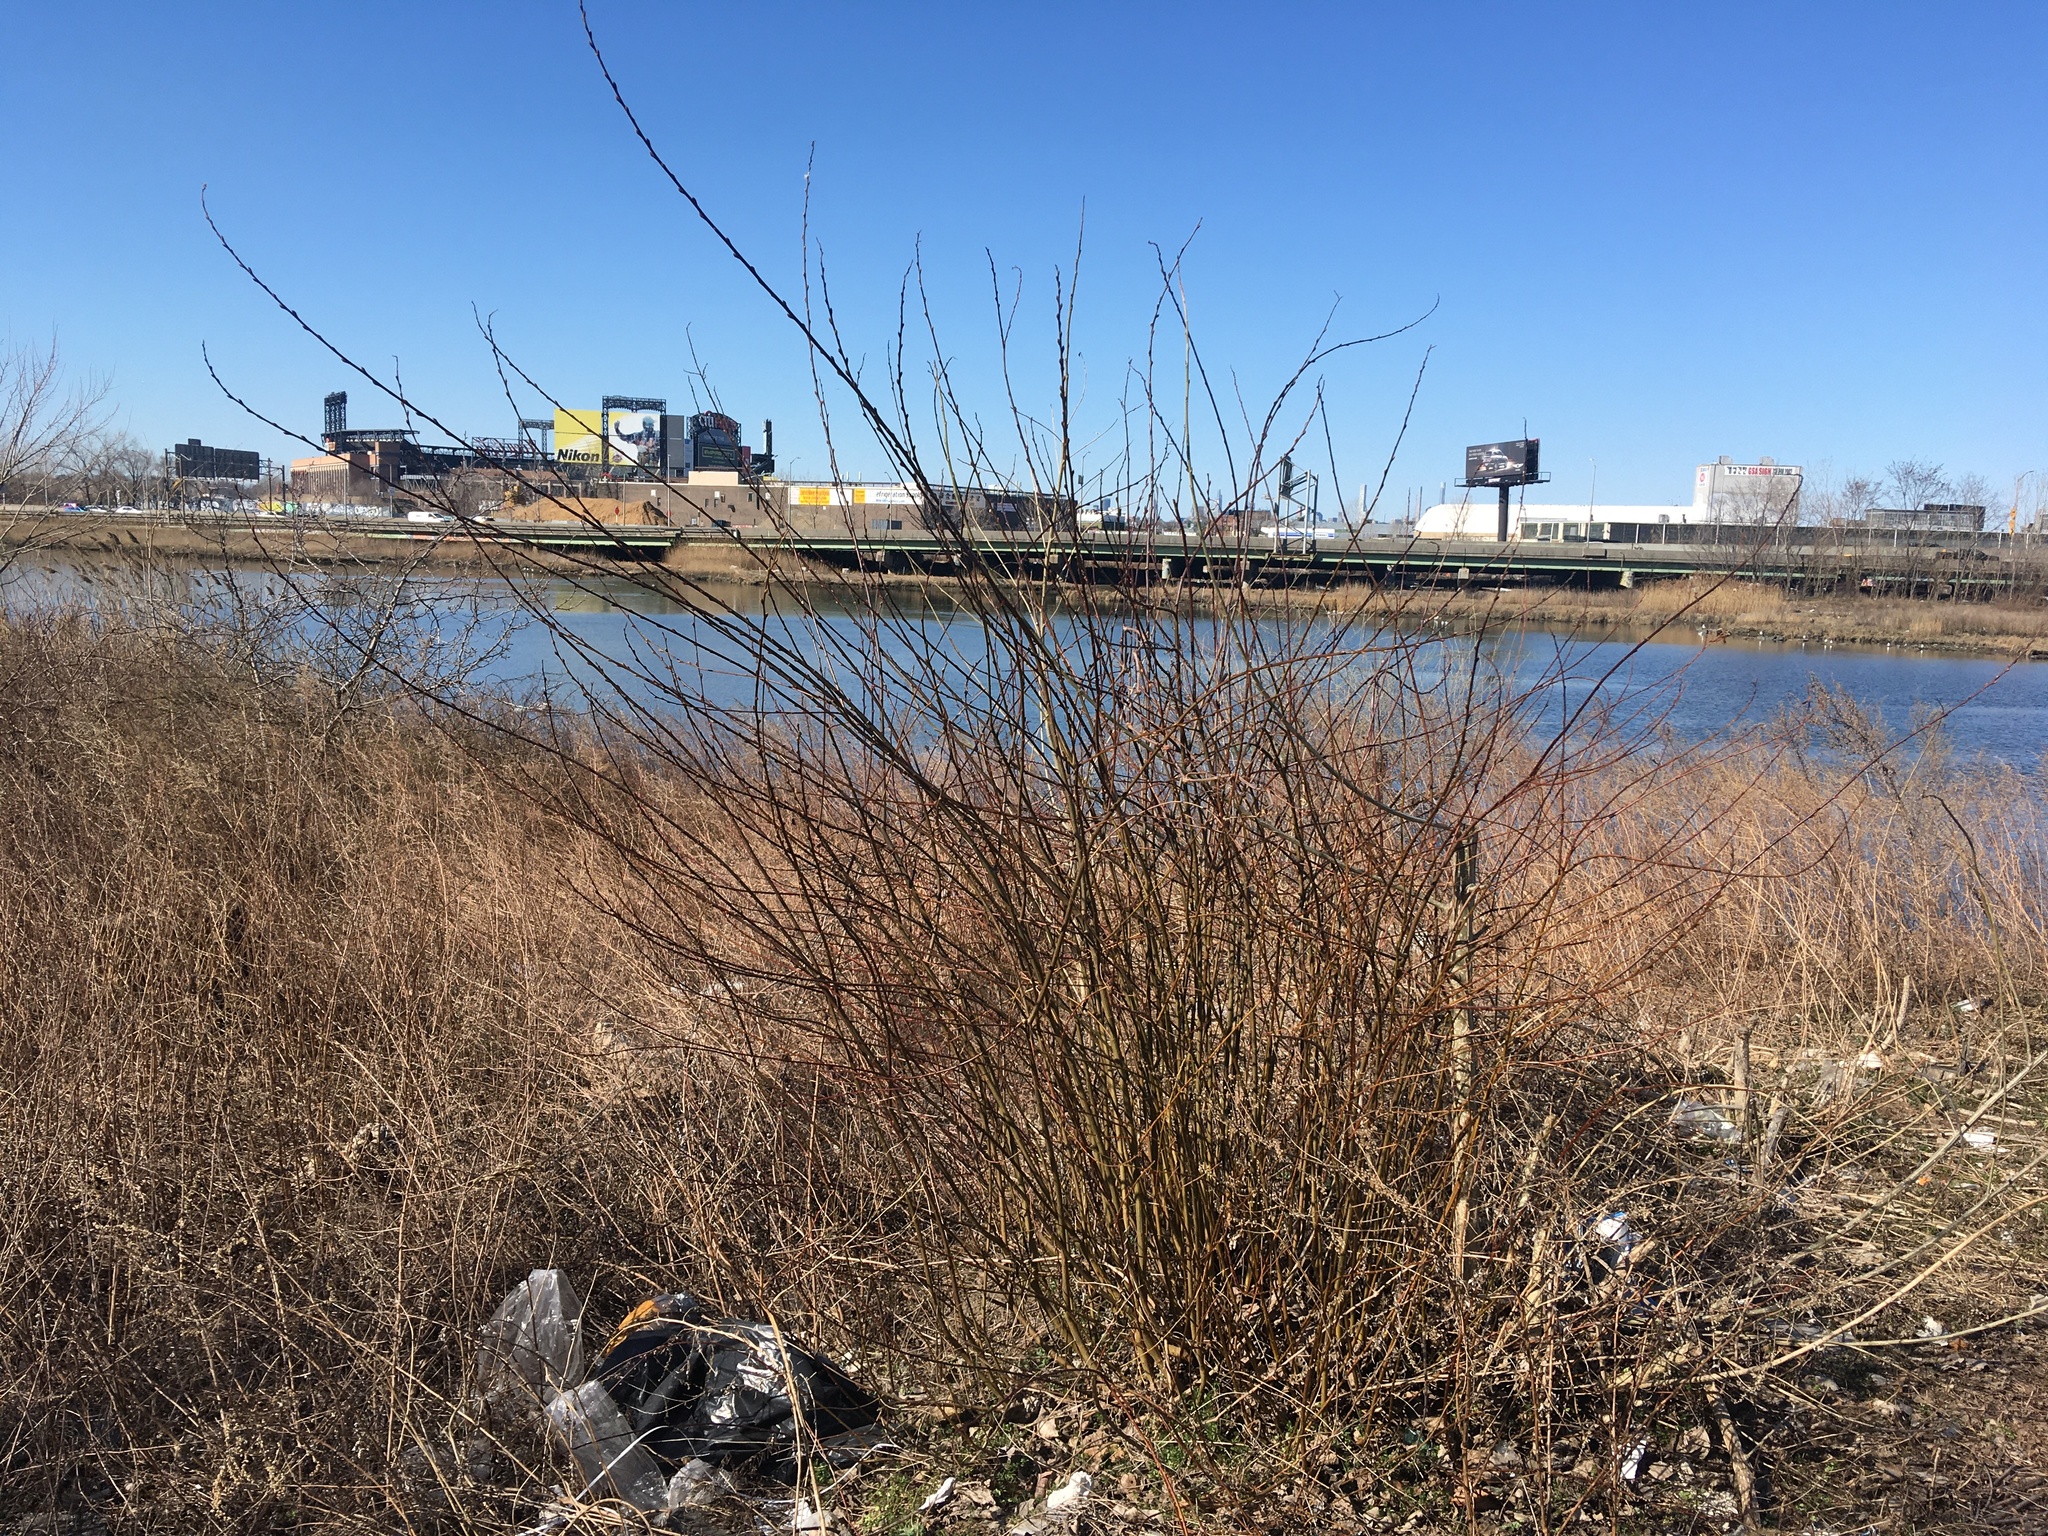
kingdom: Plantae
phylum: Tracheophyta
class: Magnoliopsida
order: Malpighiales
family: Salicaceae
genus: Salix
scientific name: Salix discolor
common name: Glaucous willow
